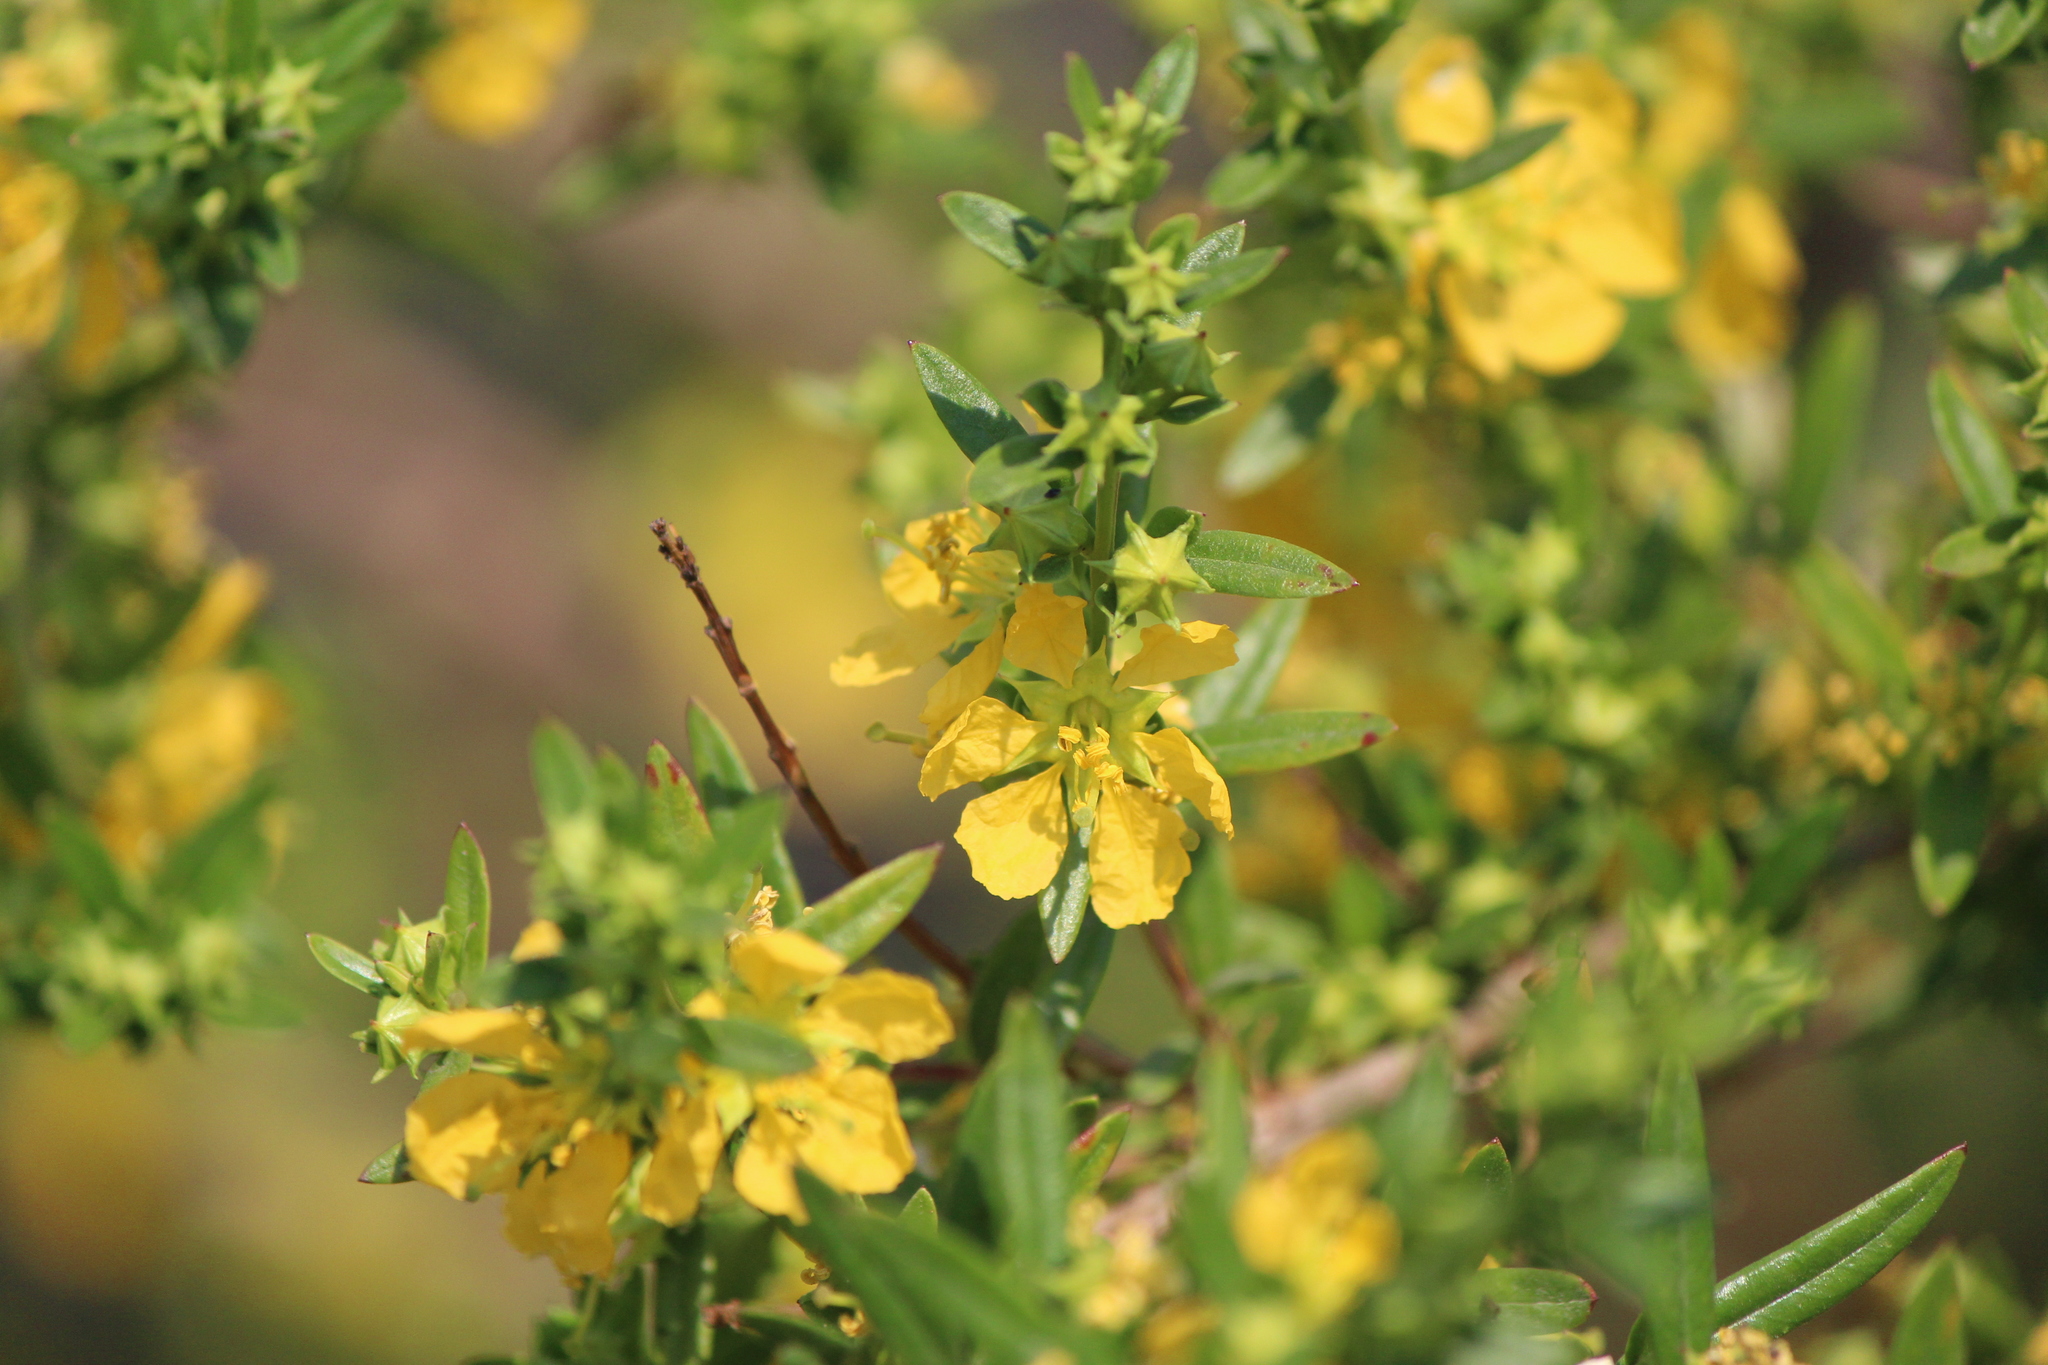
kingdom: Plantae
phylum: Tracheophyta
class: Magnoliopsida
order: Myrtales
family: Lythraceae
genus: Heimia
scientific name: Heimia salicifolia
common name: Willow-leaf heimia
